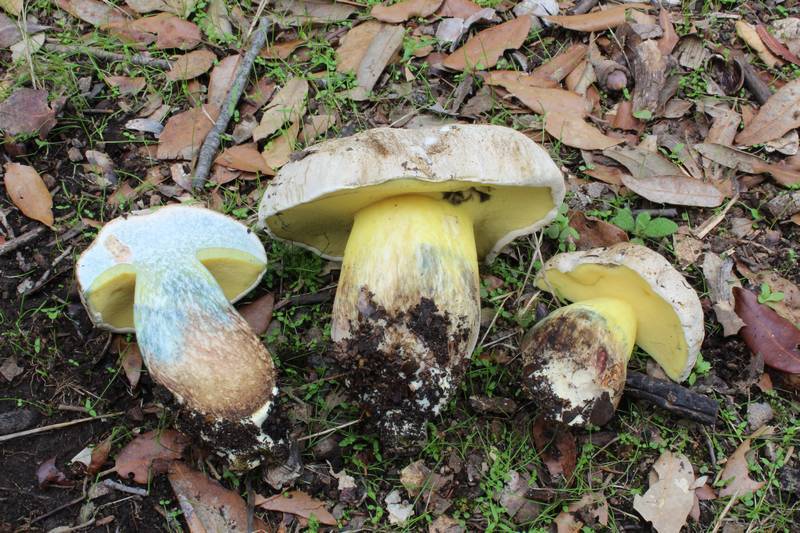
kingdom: Fungi
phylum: Basidiomycota
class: Agaricomycetes
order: Boletales
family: Boletaceae
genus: Caloboletus
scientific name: Caloboletus radicans
